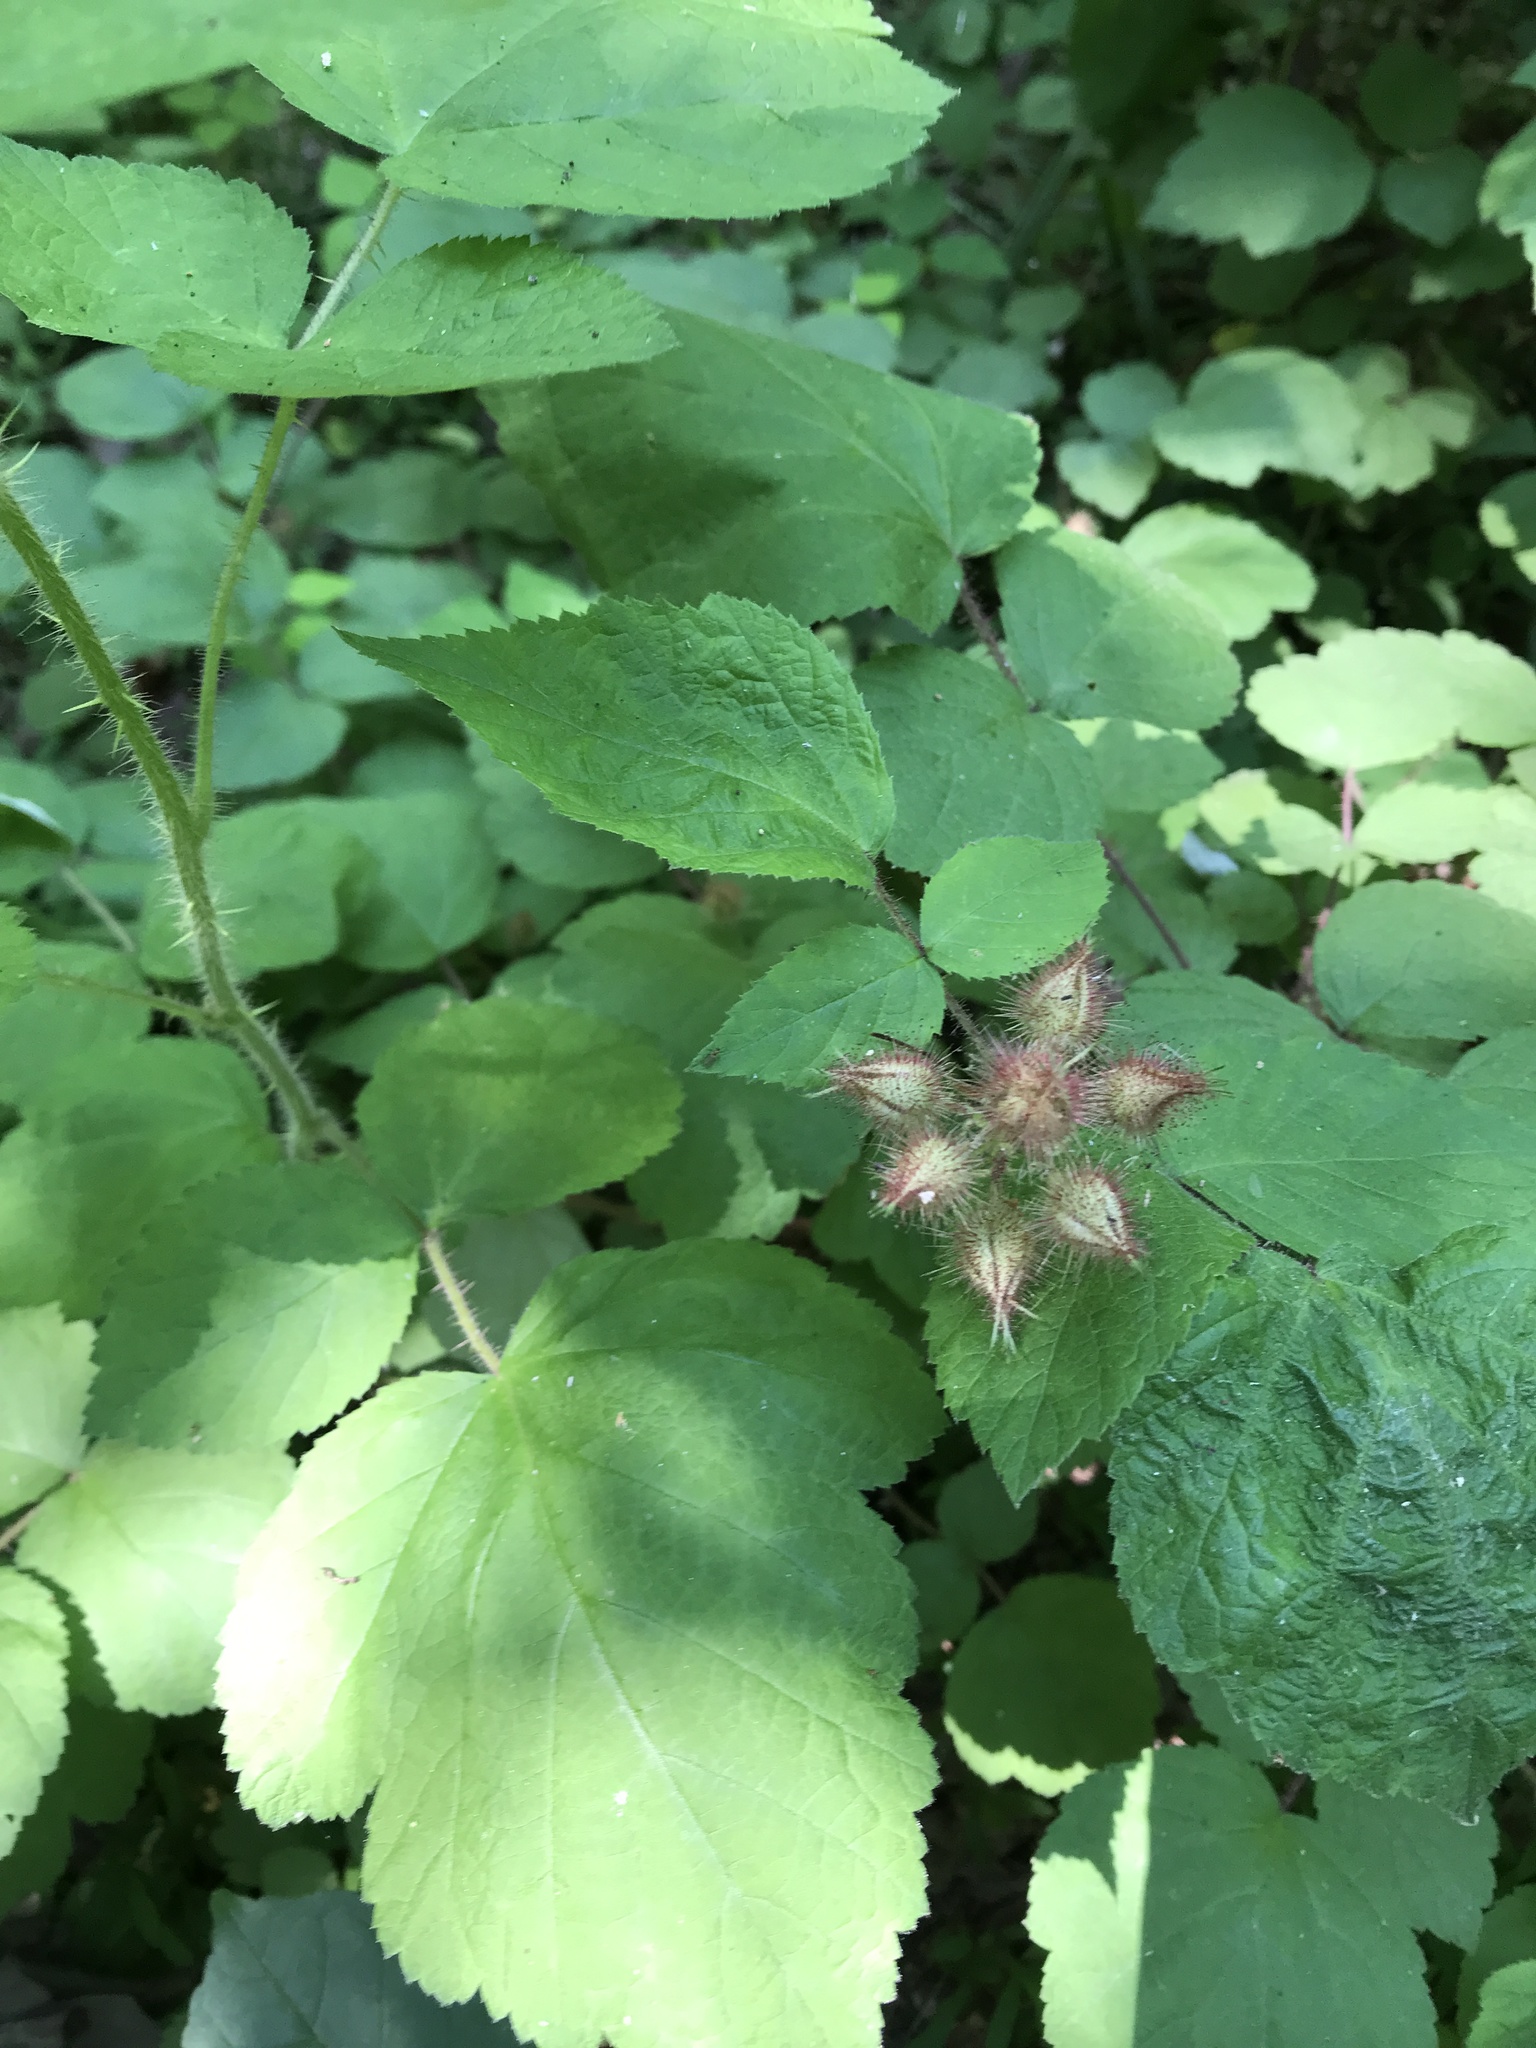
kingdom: Plantae
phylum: Tracheophyta
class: Magnoliopsida
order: Rosales
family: Rosaceae
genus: Rubus
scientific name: Rubus phoenicolasius
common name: Japanese wineberry
